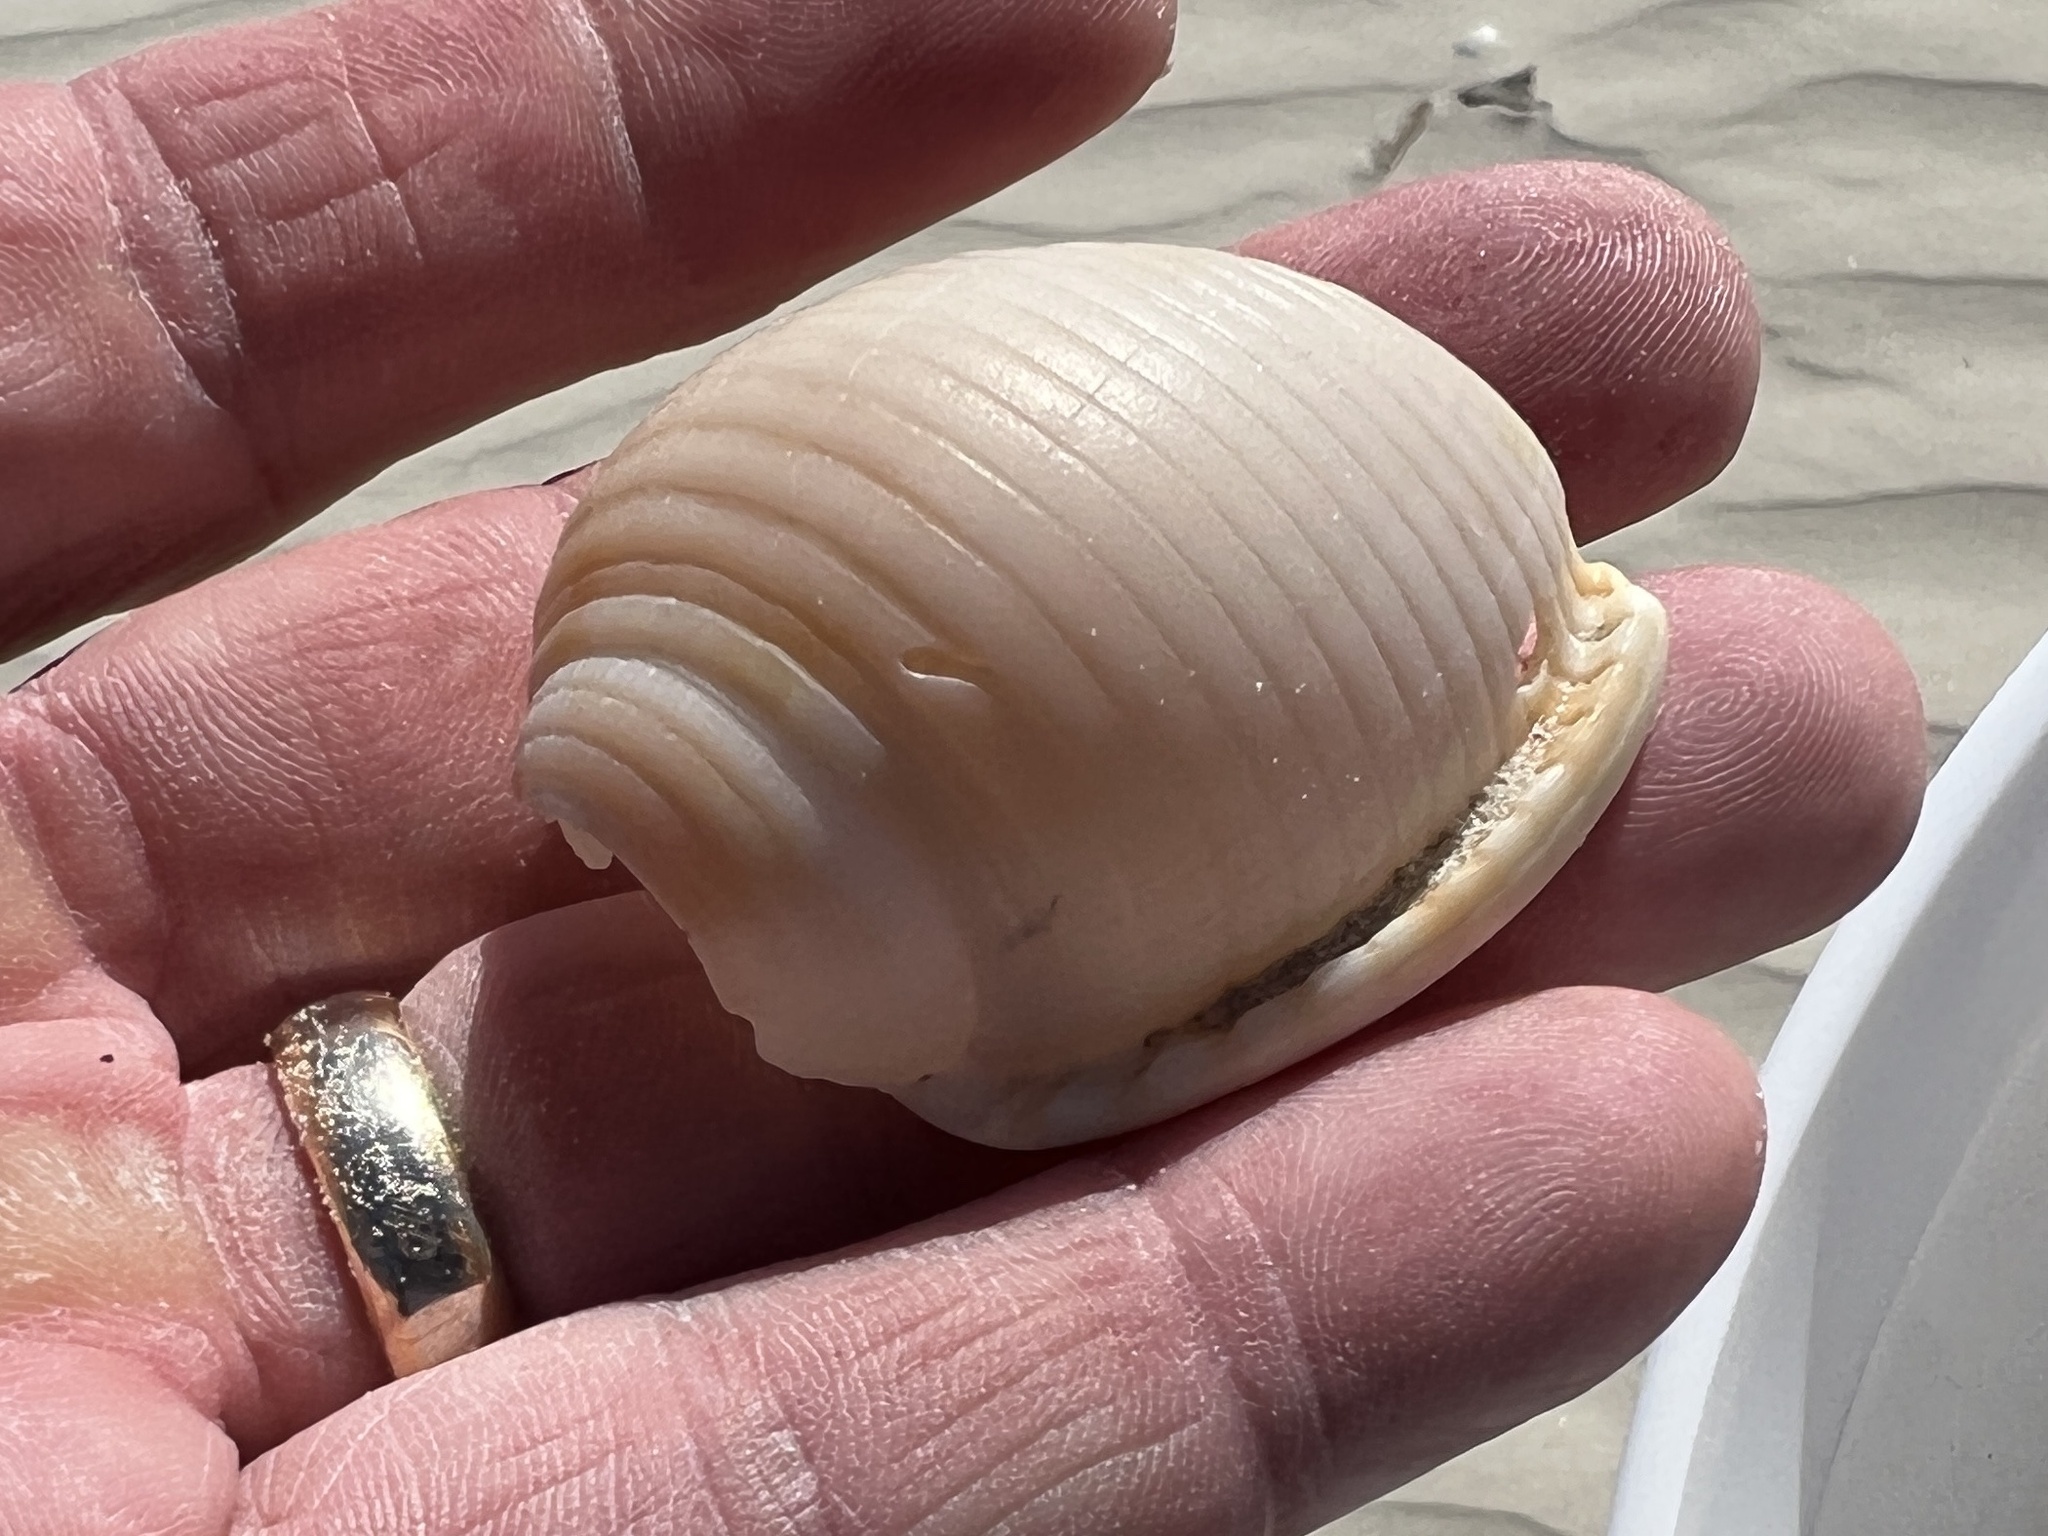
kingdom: Animalia
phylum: Mollusca
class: Gastropoda
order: Littorinimorpha
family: Cassidae
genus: Semicassis
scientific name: Semicassis granulata
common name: Scotch bonnet
